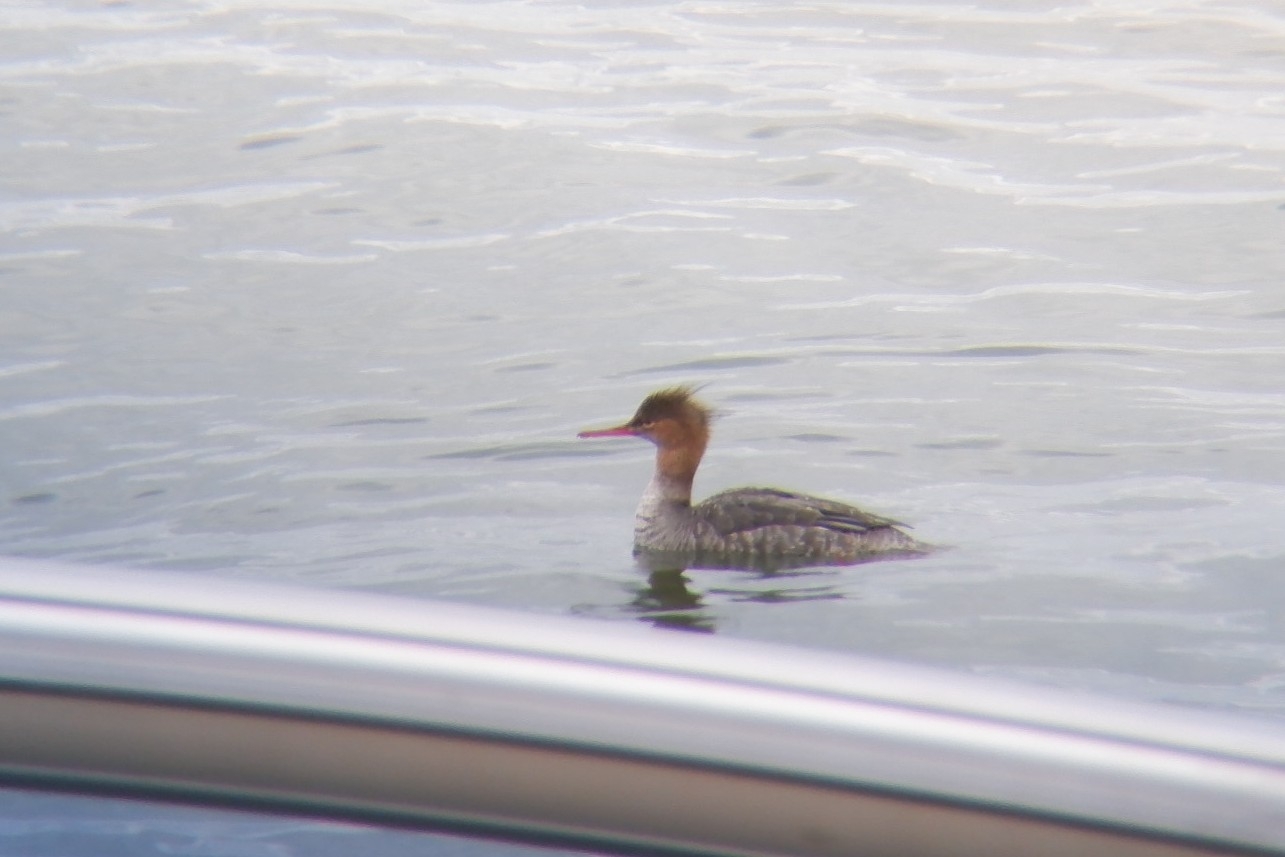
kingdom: Animalia
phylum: Chordata
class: Aves
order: Anseriformes
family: Anatidae
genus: Mergus
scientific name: Mergus serrator
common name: Red-breasted merganser
